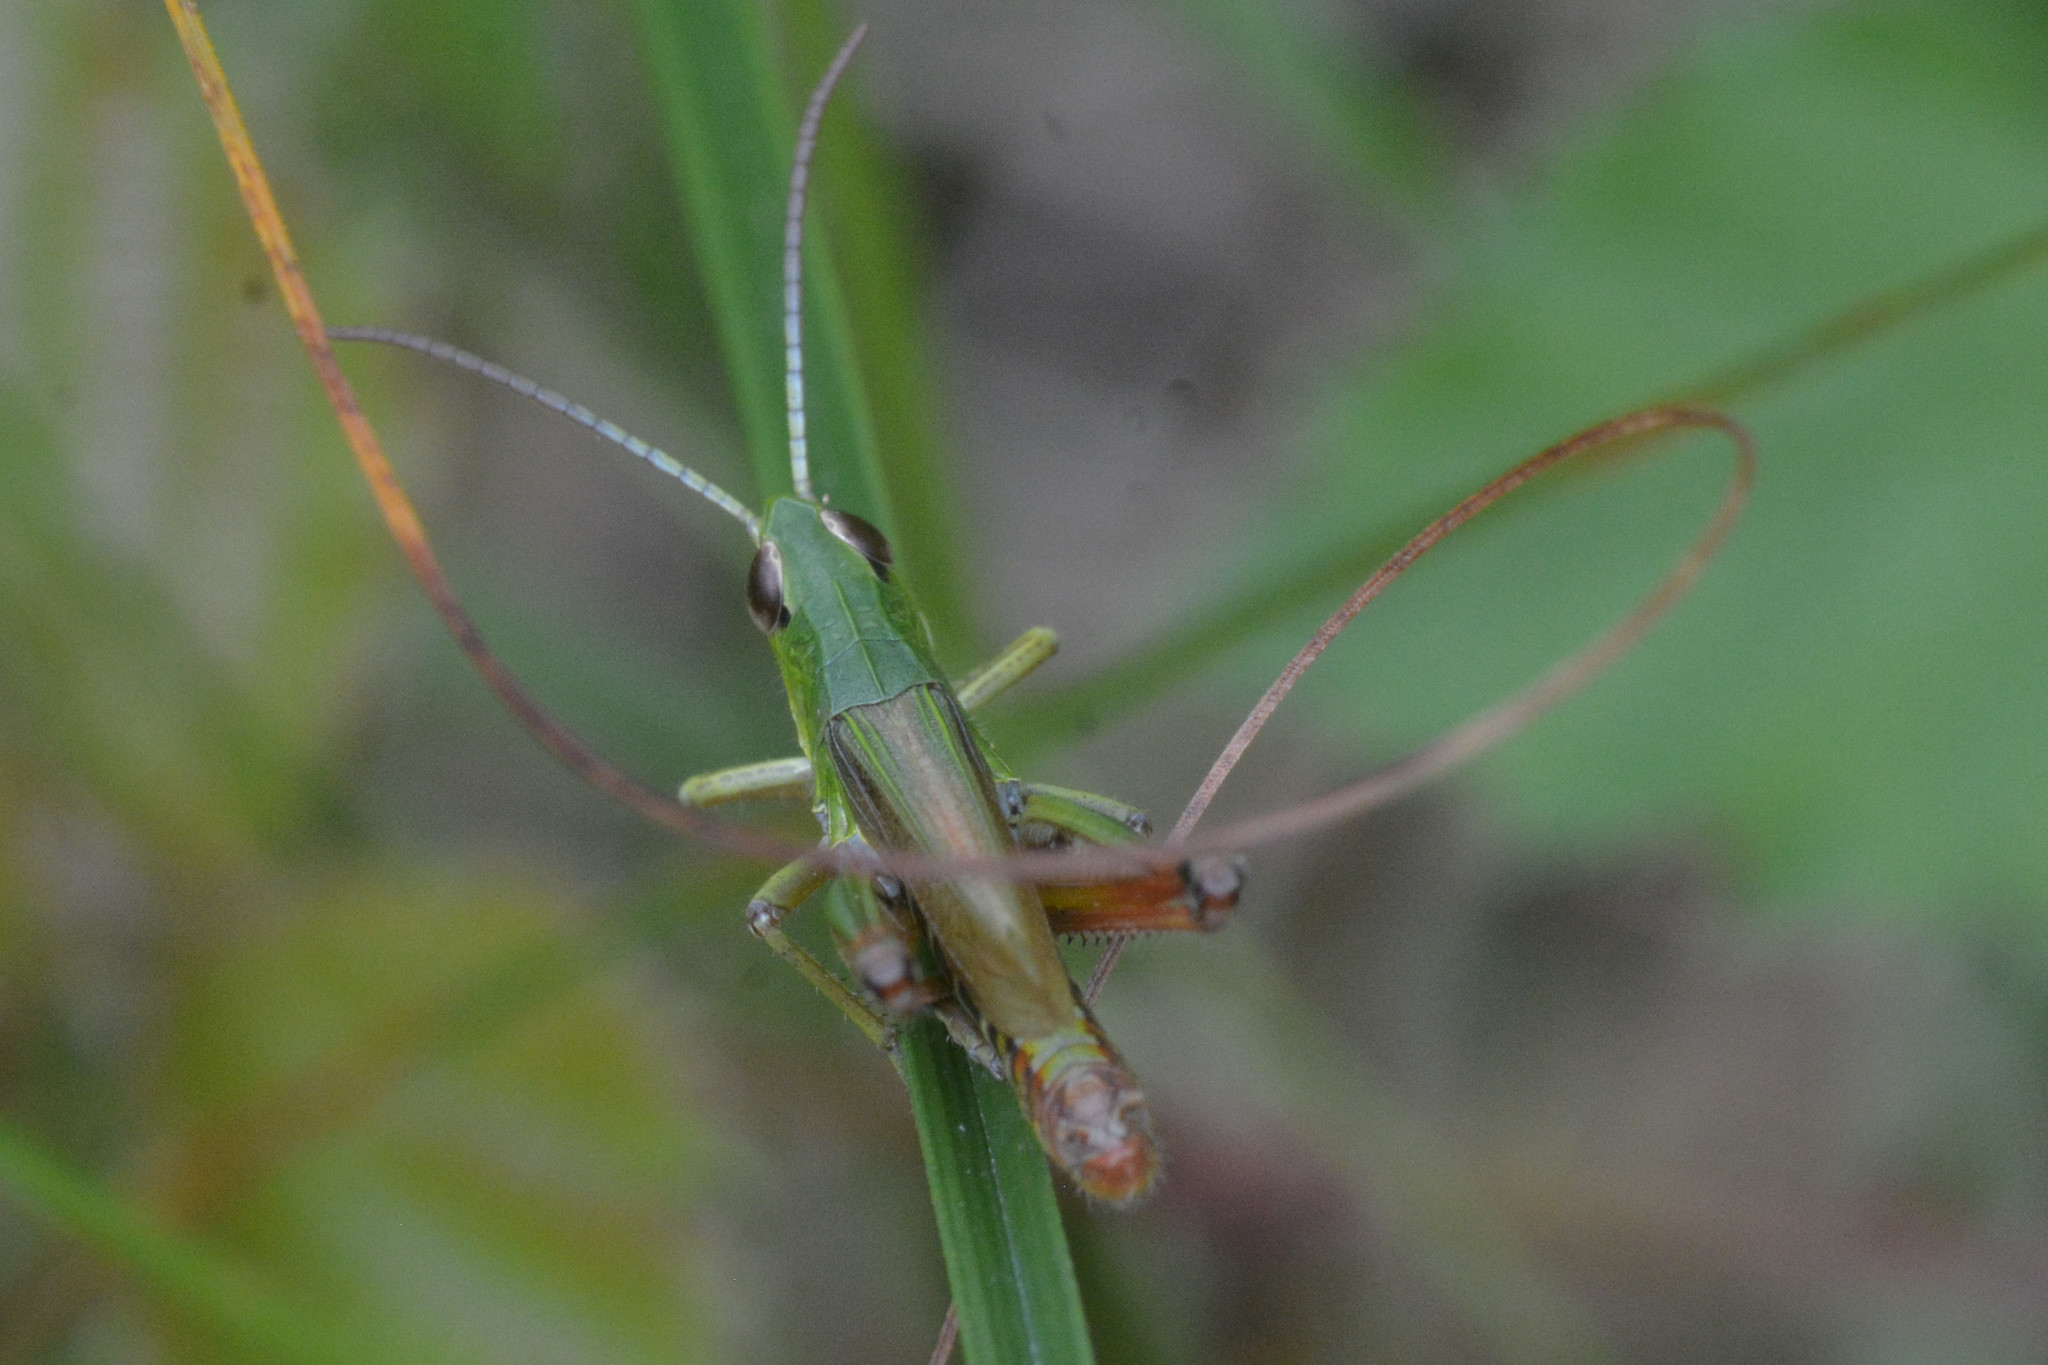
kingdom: Animalia
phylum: Arthropoda
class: Insecta
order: Orthoptera
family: Acrididae
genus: Pseudochorthippus
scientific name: Pseudochorthippus parallelus
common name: Meadow grasshopper
